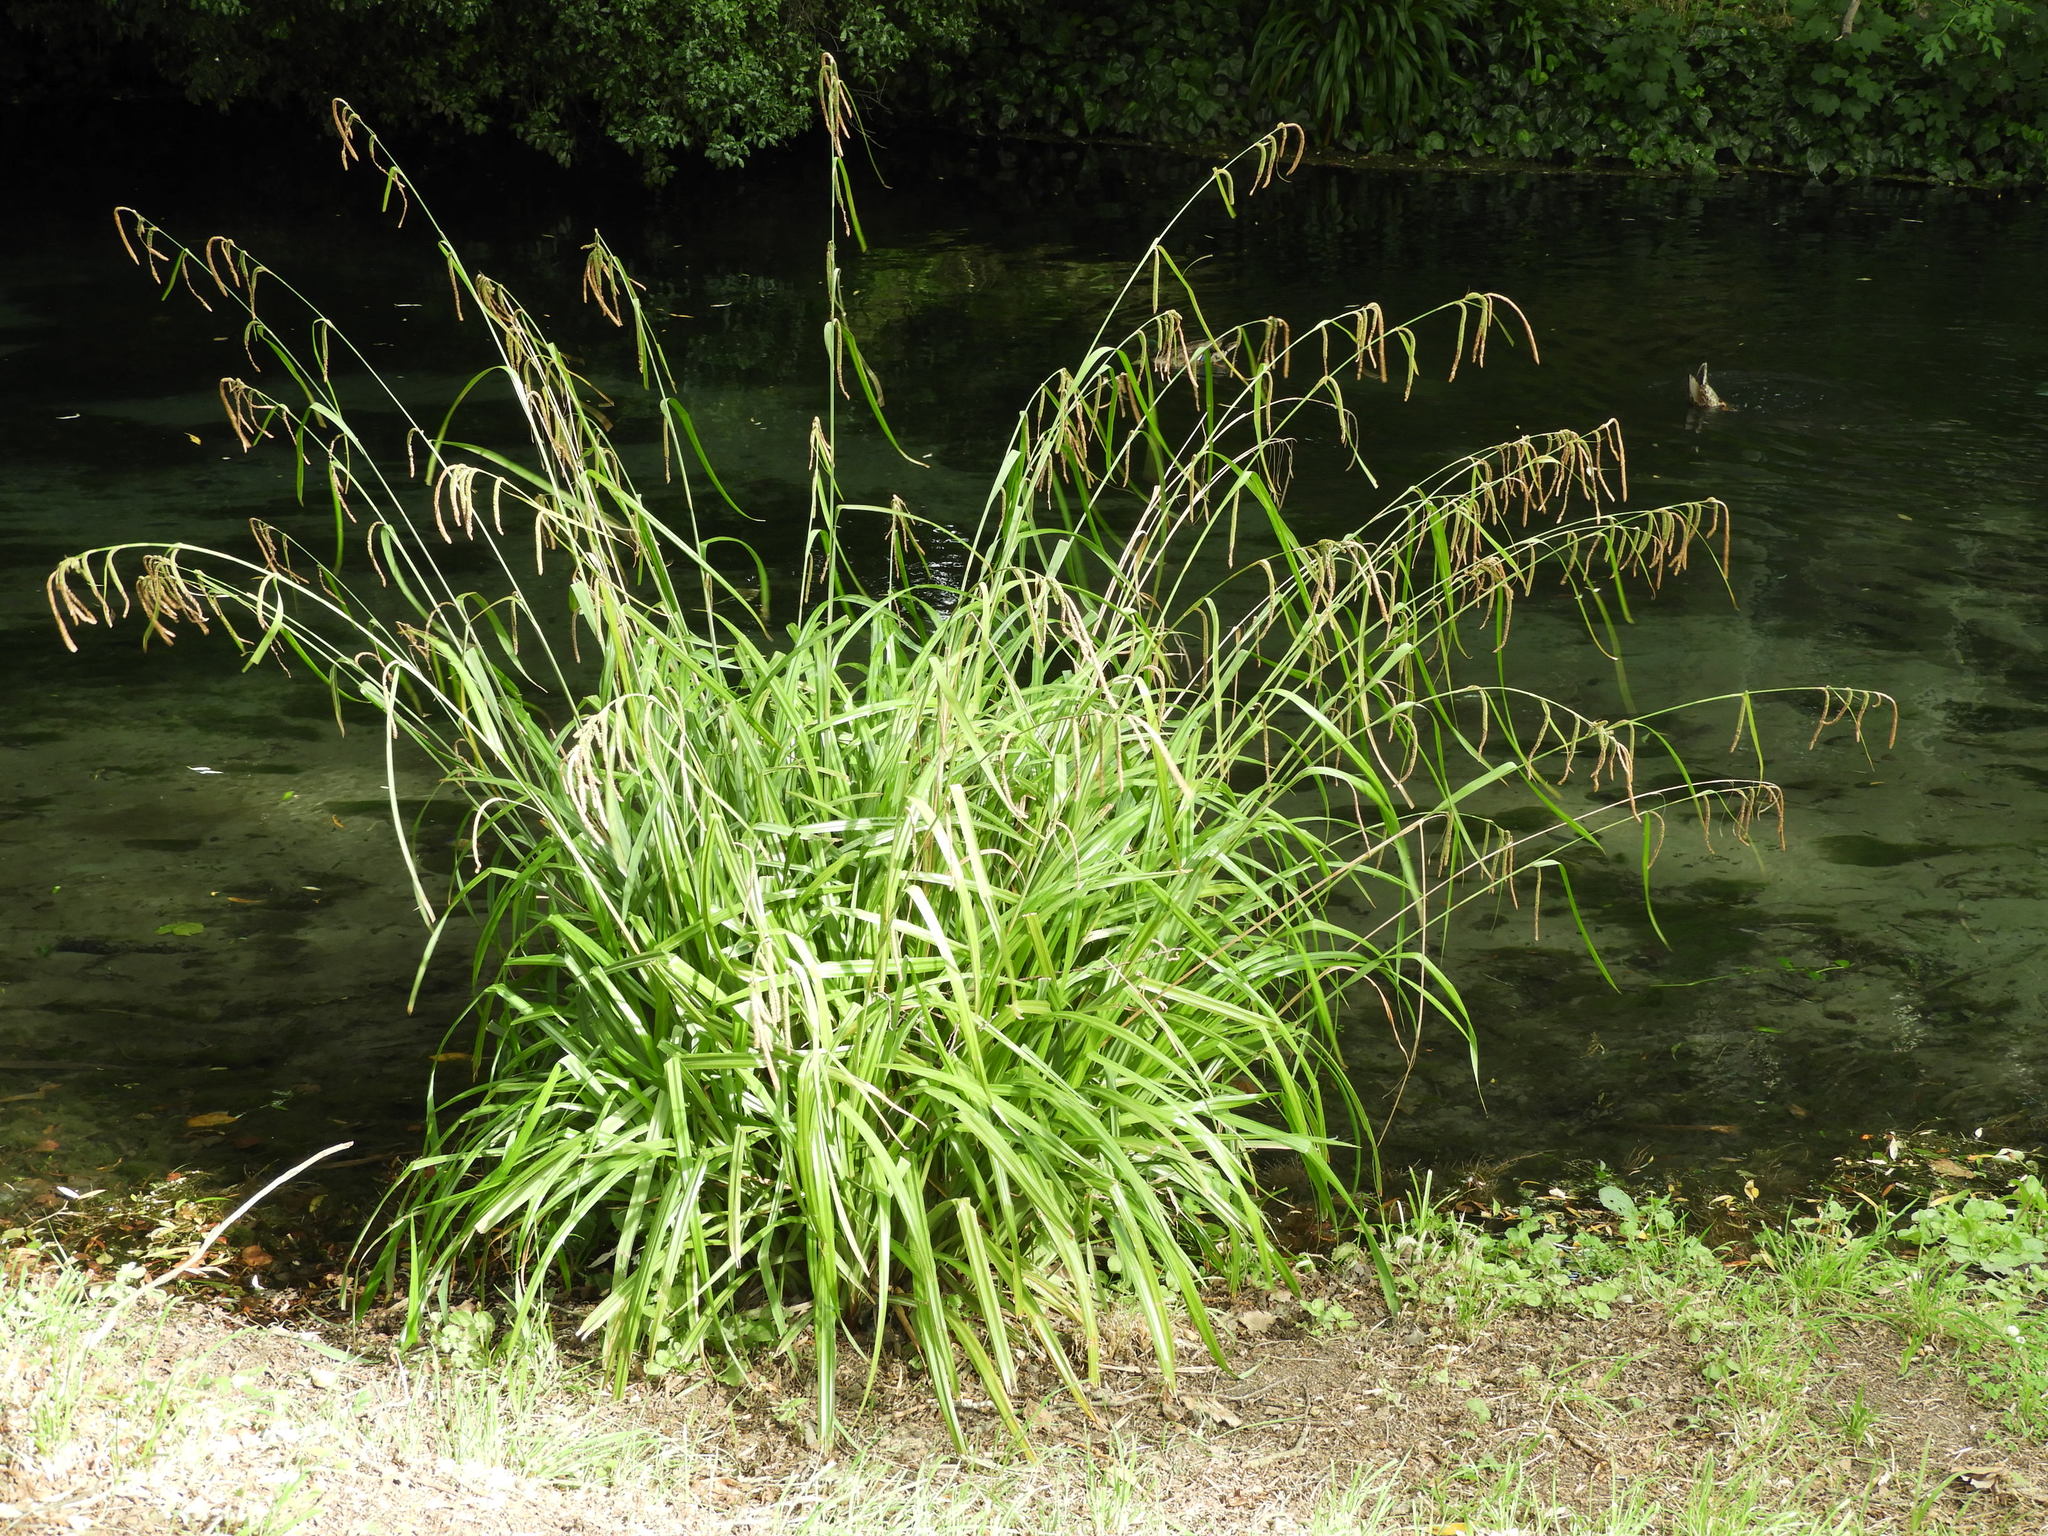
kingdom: Plantae
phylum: Tracheophyta
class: Liliopsida
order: Poales
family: Cyperaceae
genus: Carex
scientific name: Carex pendula
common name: Pendulous sedge
